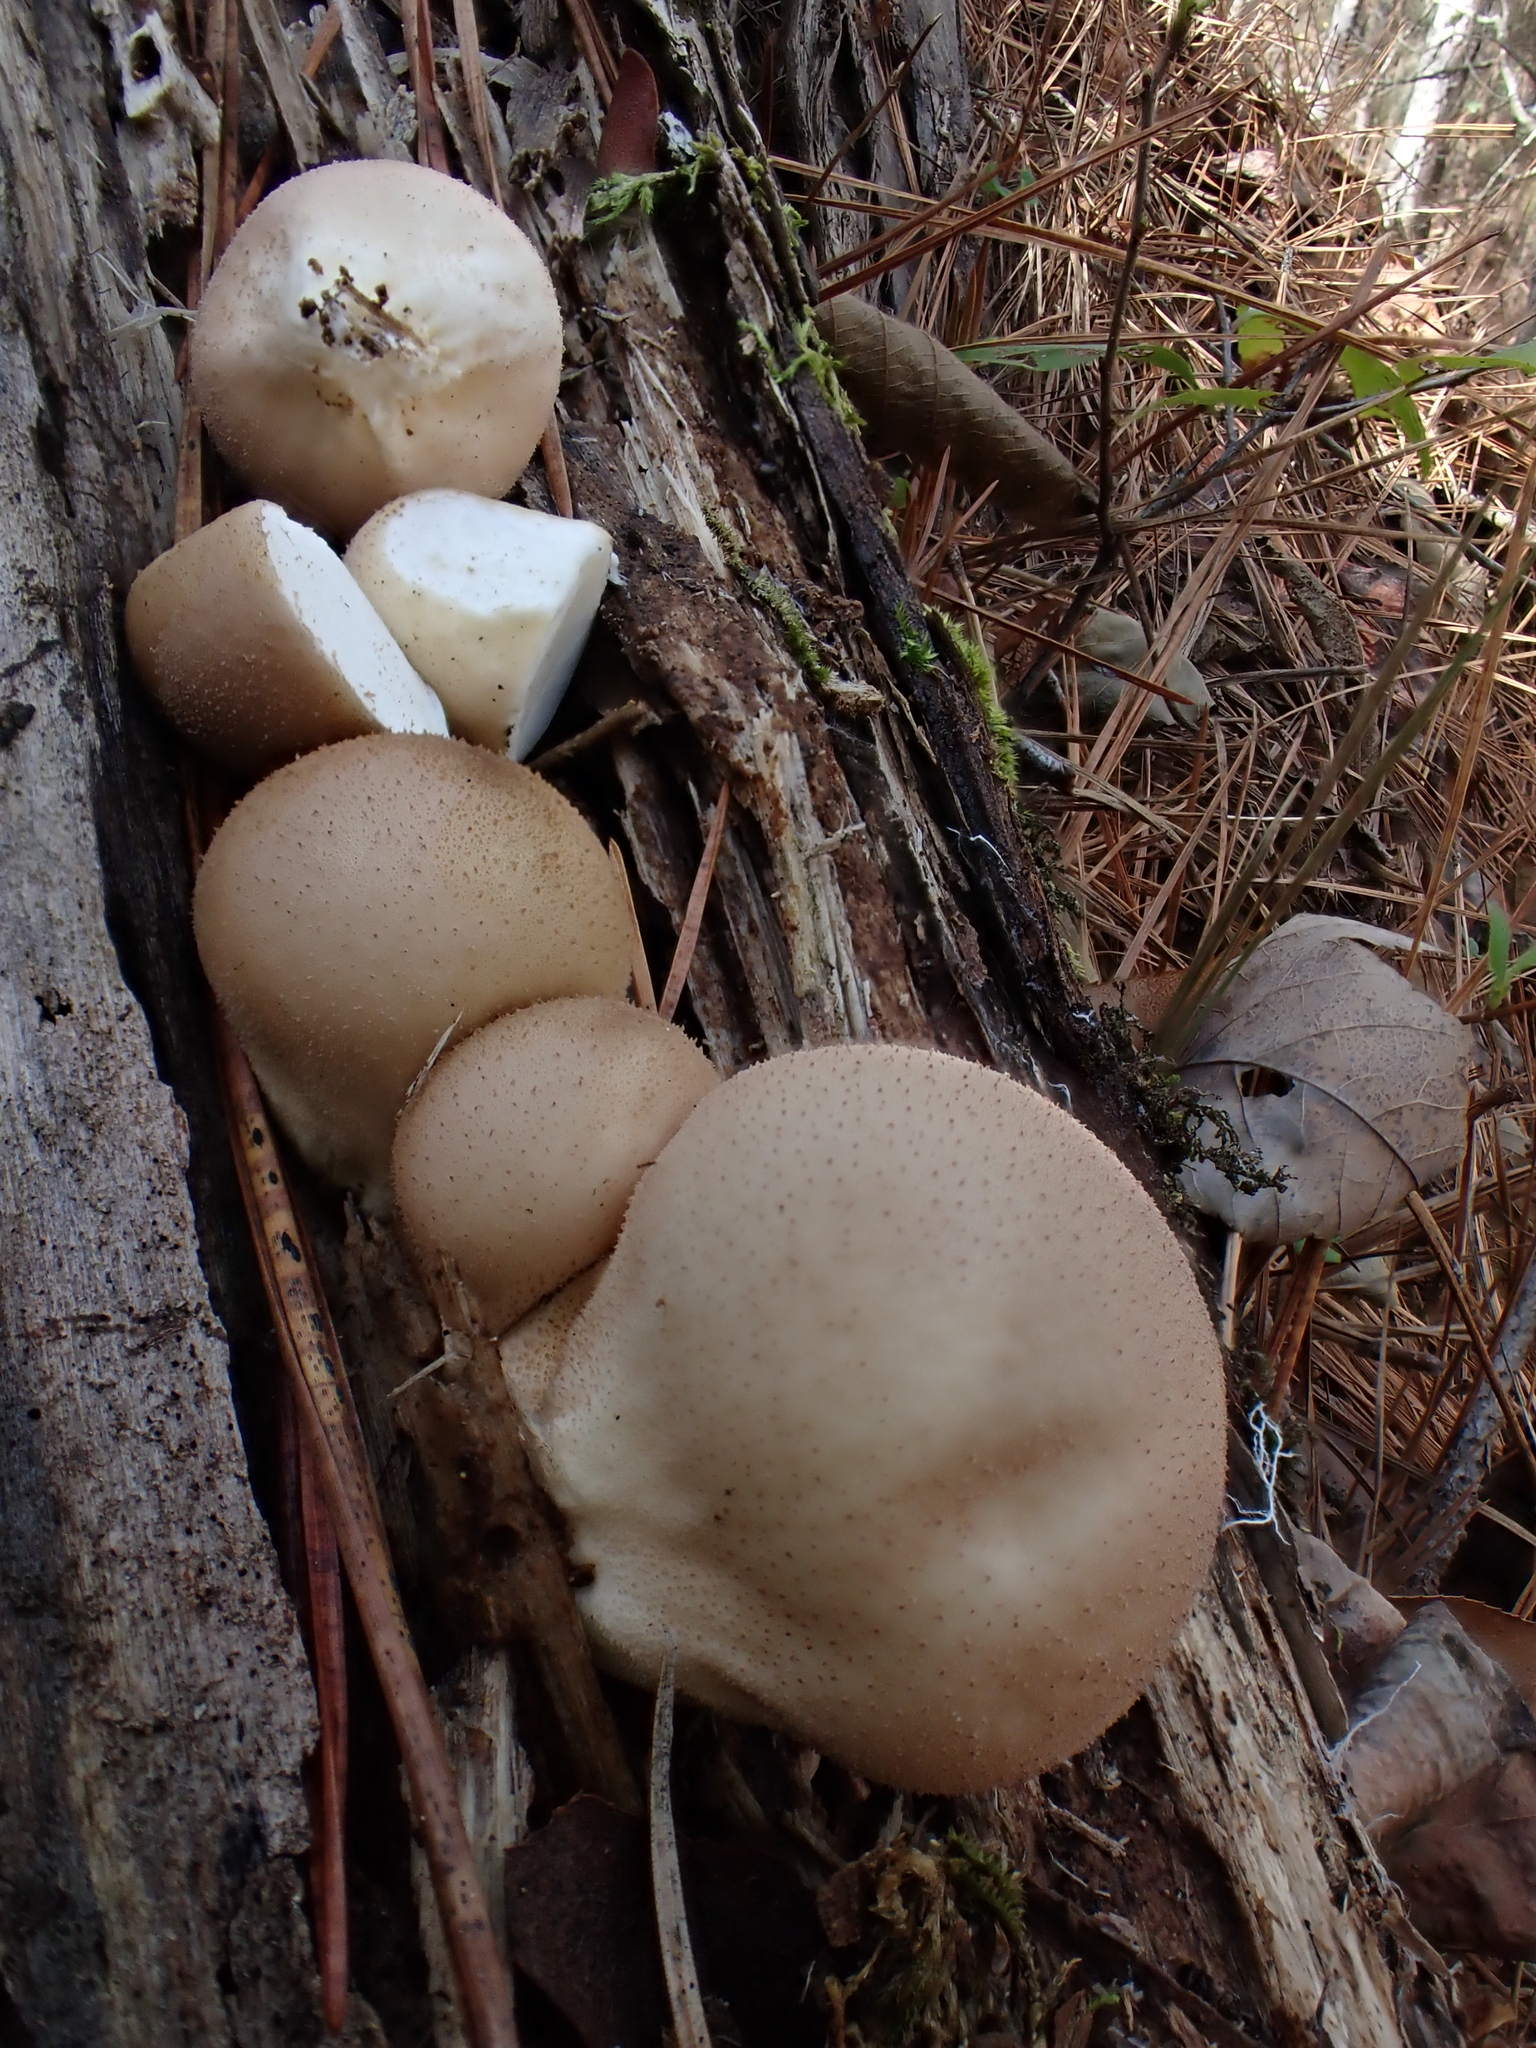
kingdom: Fungi
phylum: Basidiomycota
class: Agaricomycetes
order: Agaricales
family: Lycoperdaceae
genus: Apioperdon
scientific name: Apioperdon pyriforme
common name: Pear-shaped puffball
